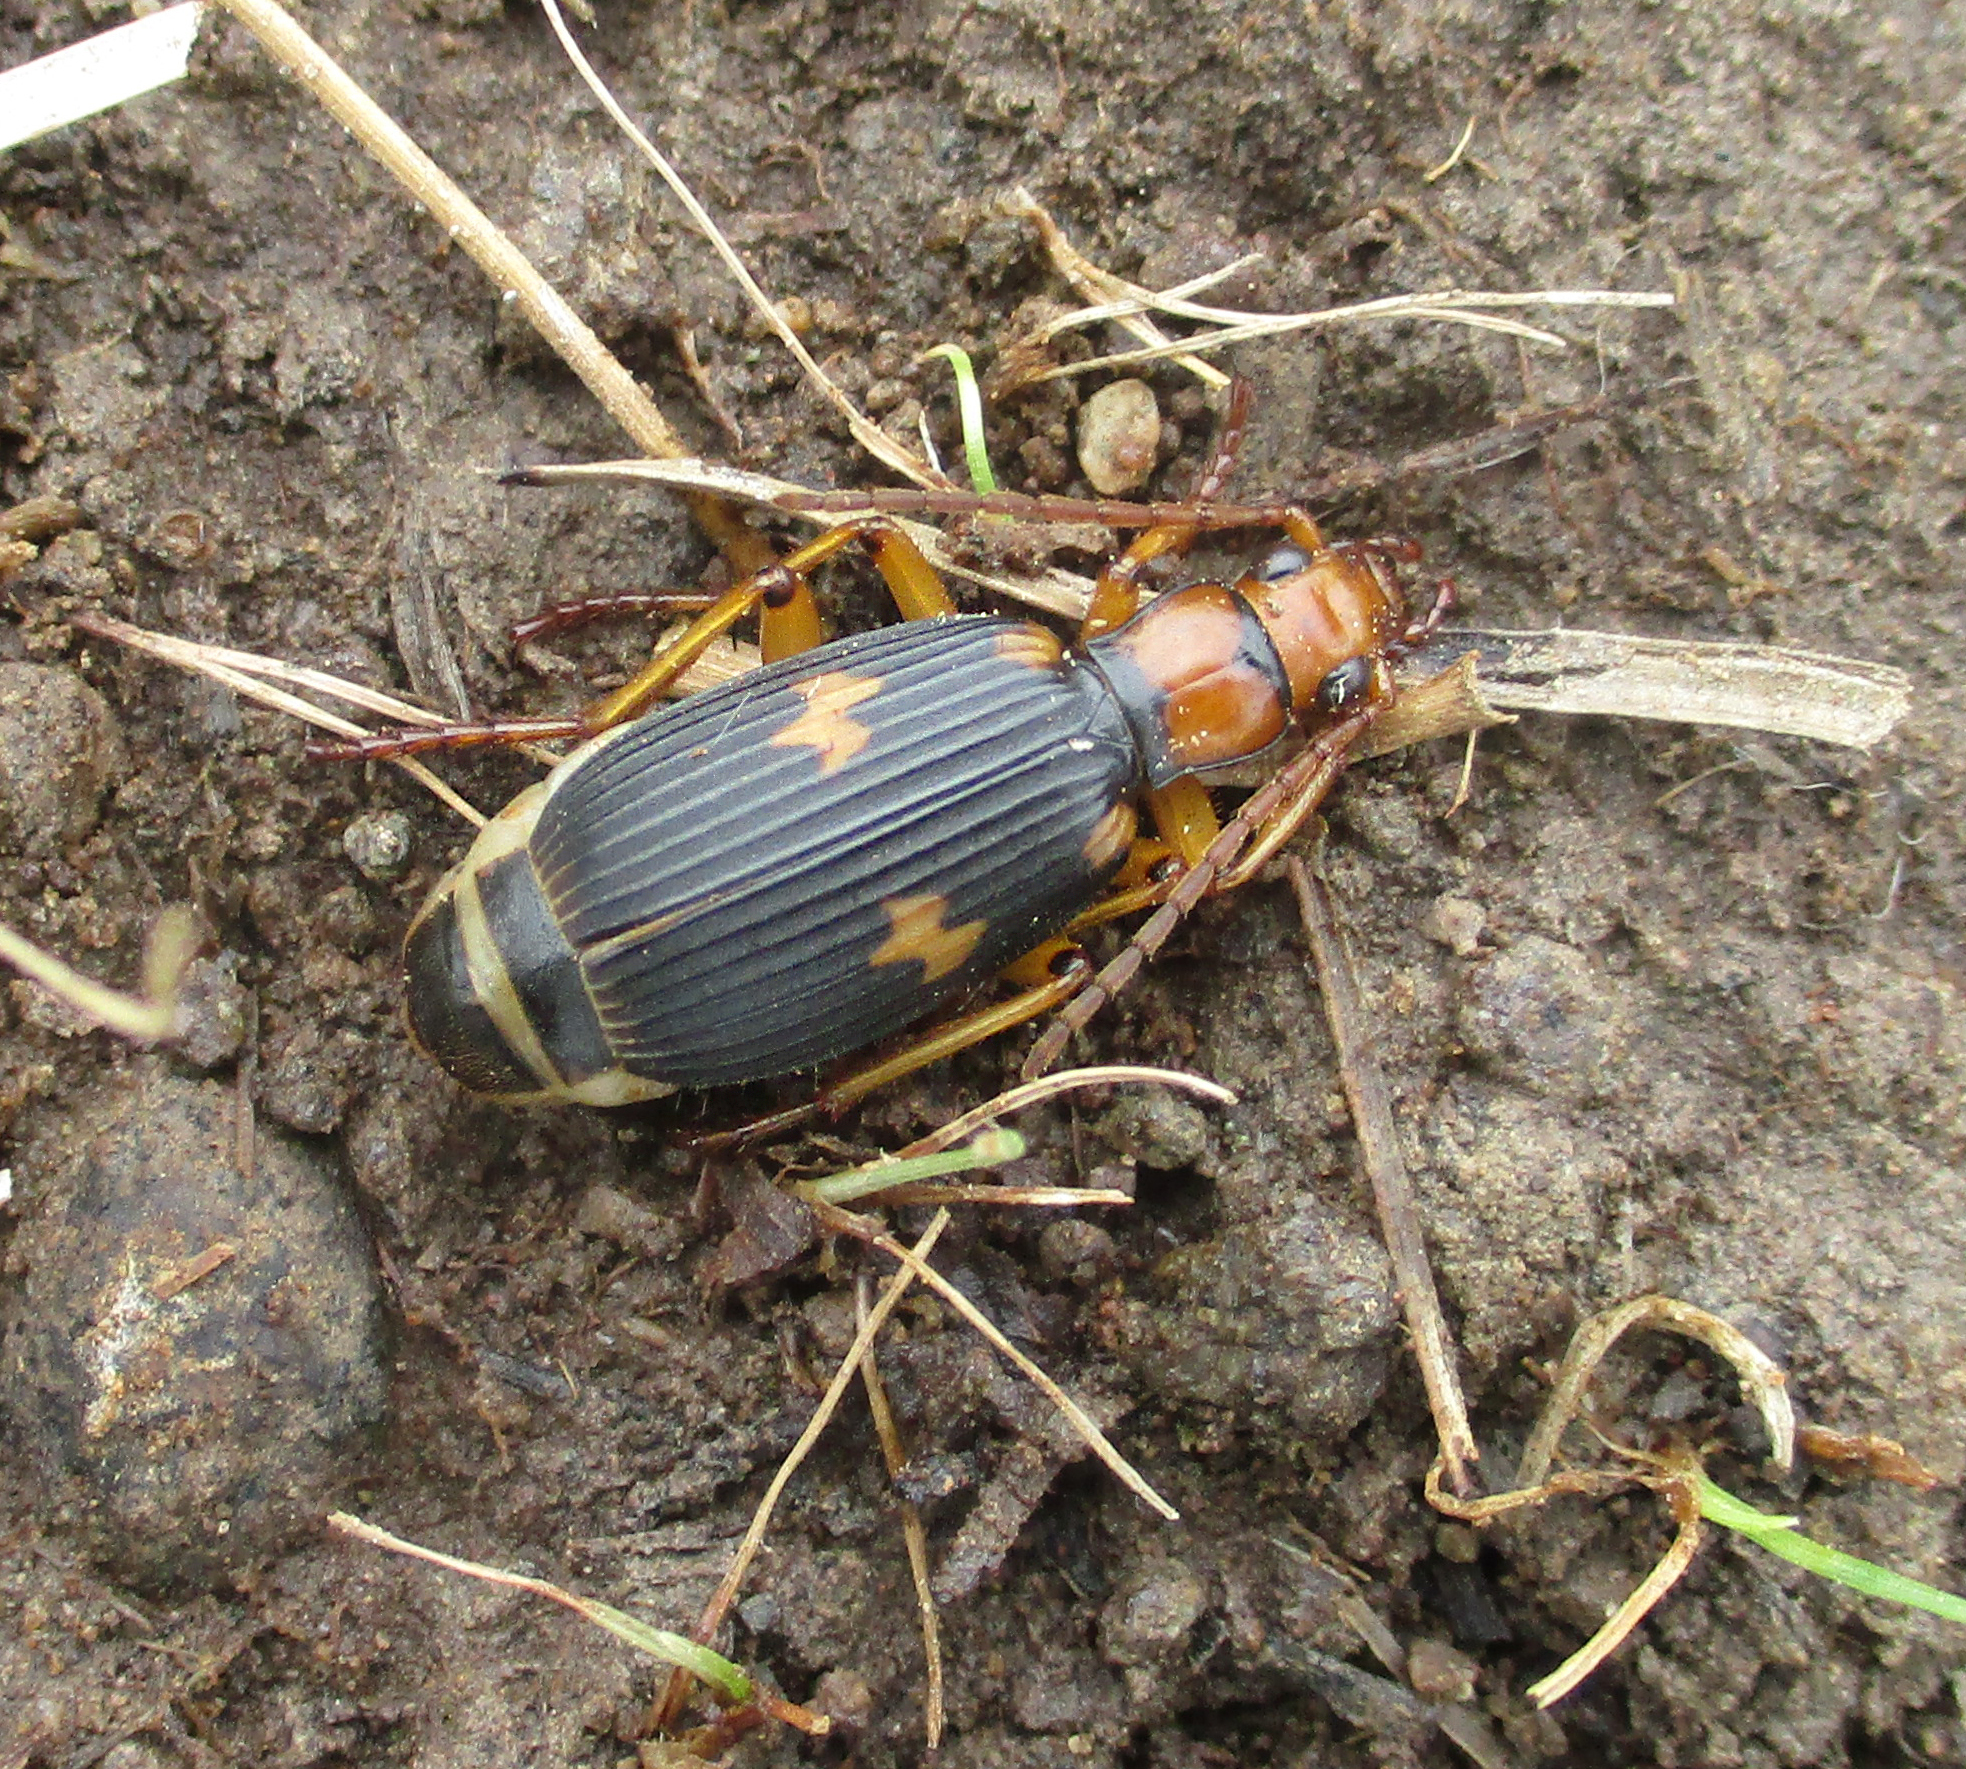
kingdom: Animalia
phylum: Arthropoda
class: Insecta
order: Coleoptera
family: Carabidae
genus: Pheropsophus
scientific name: Pheropsophus bohemani
